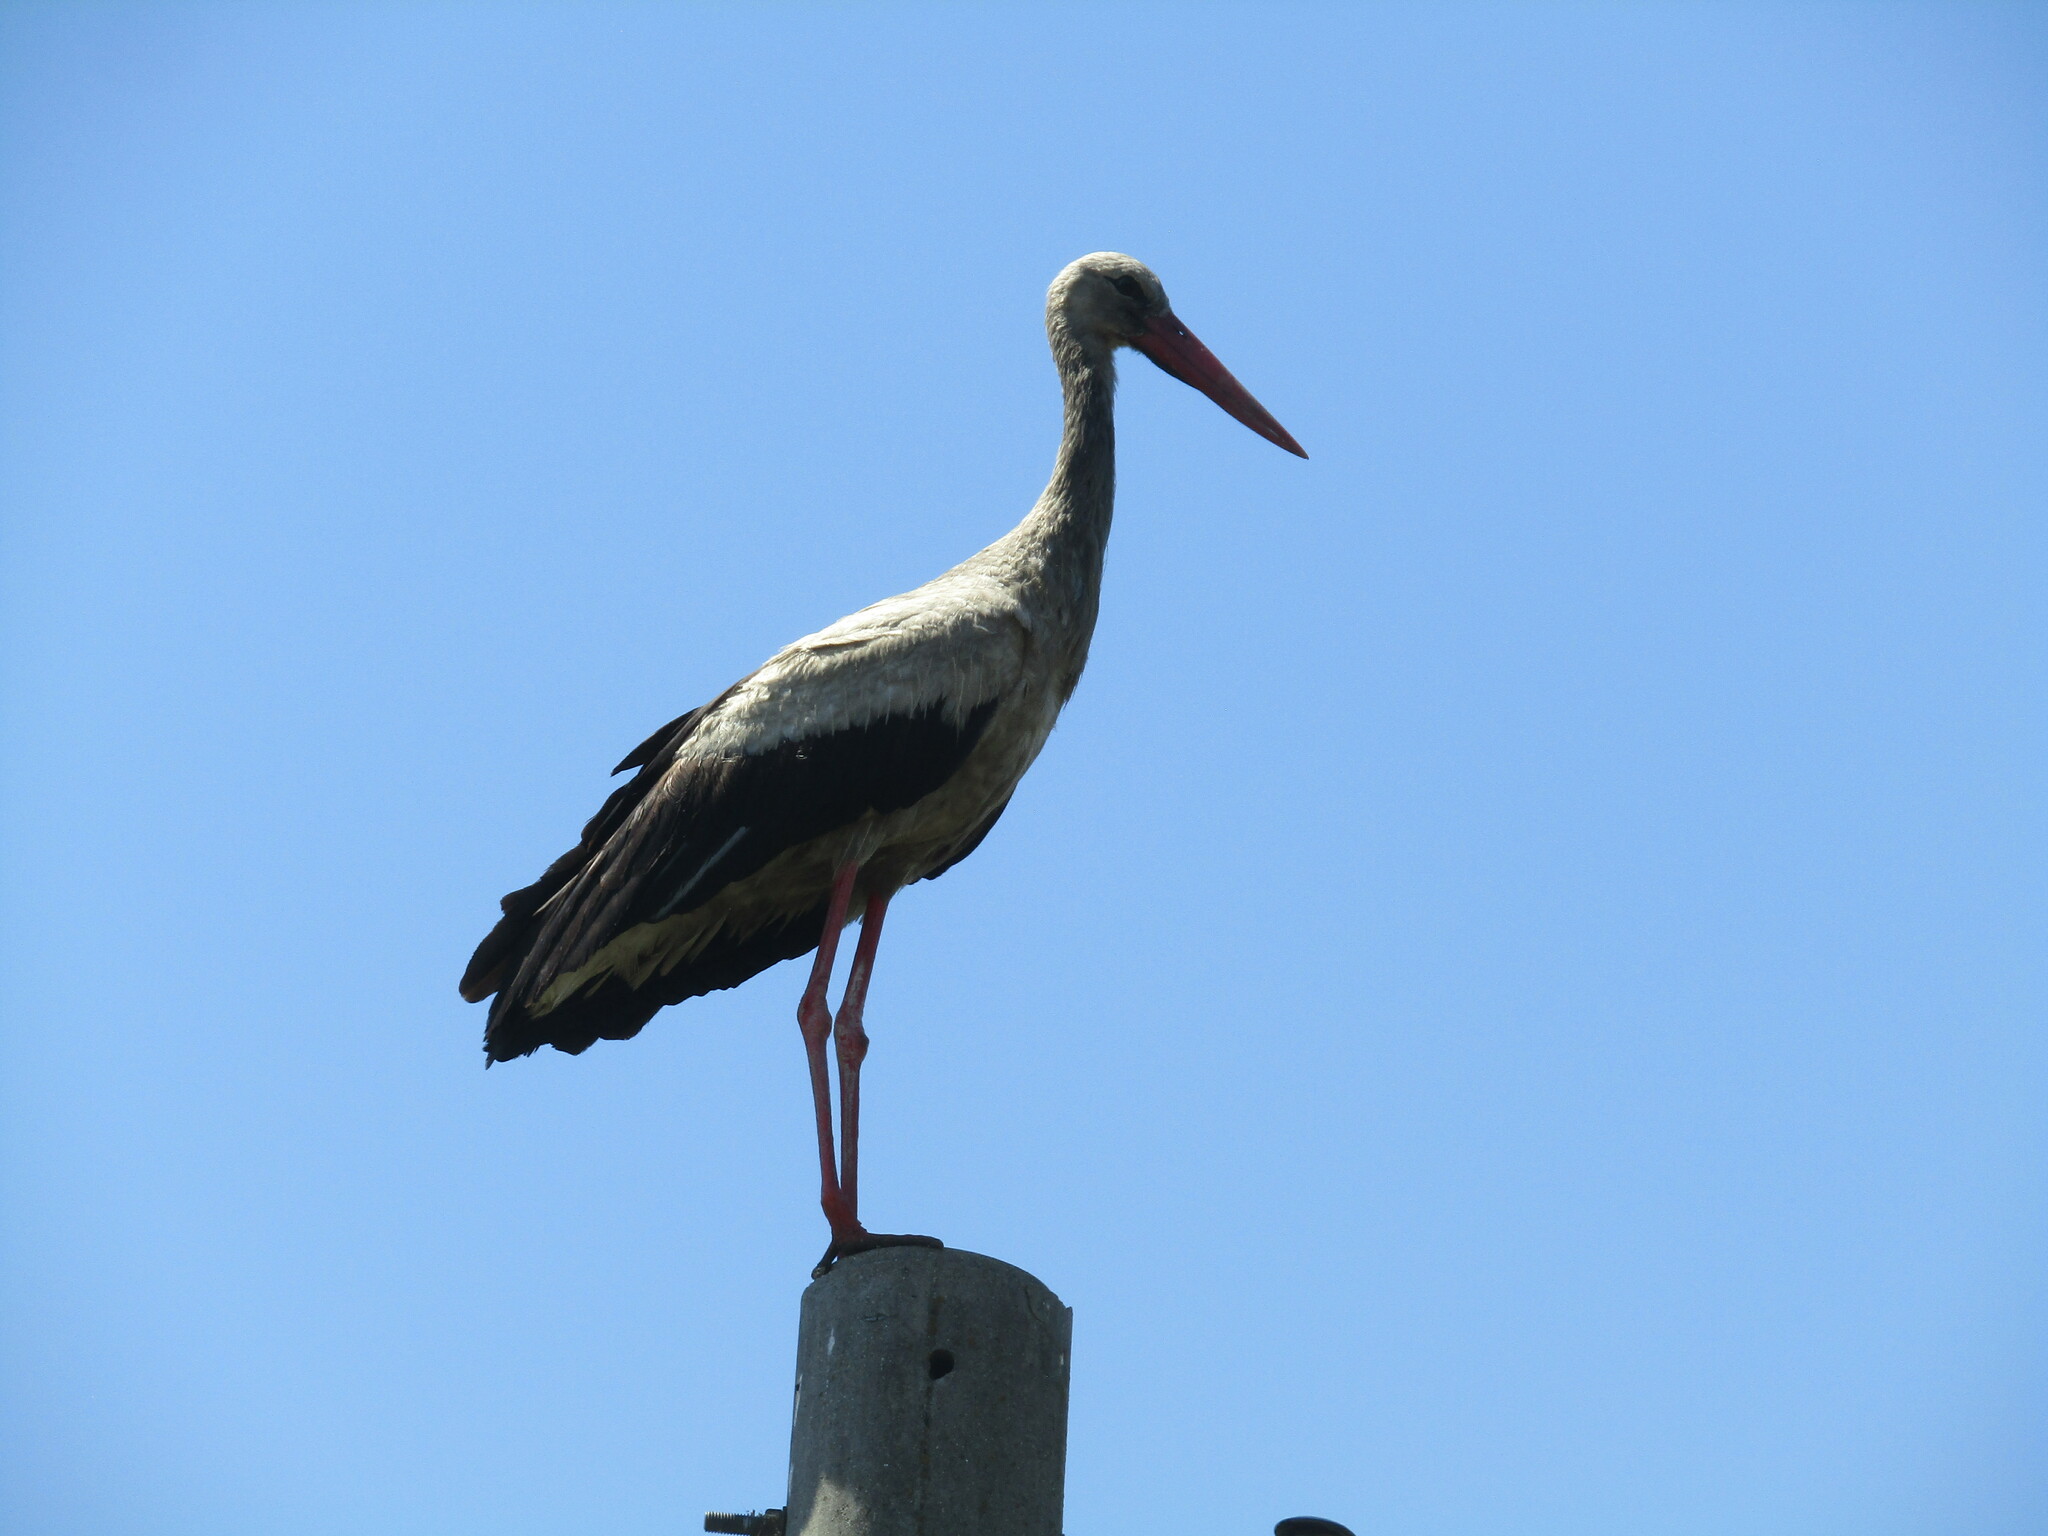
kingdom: Animalia
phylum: Chordata
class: Aves
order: Ciconiiformes
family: Ciconiidae
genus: Ciconia
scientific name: Ciconia ciconia
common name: White stork
